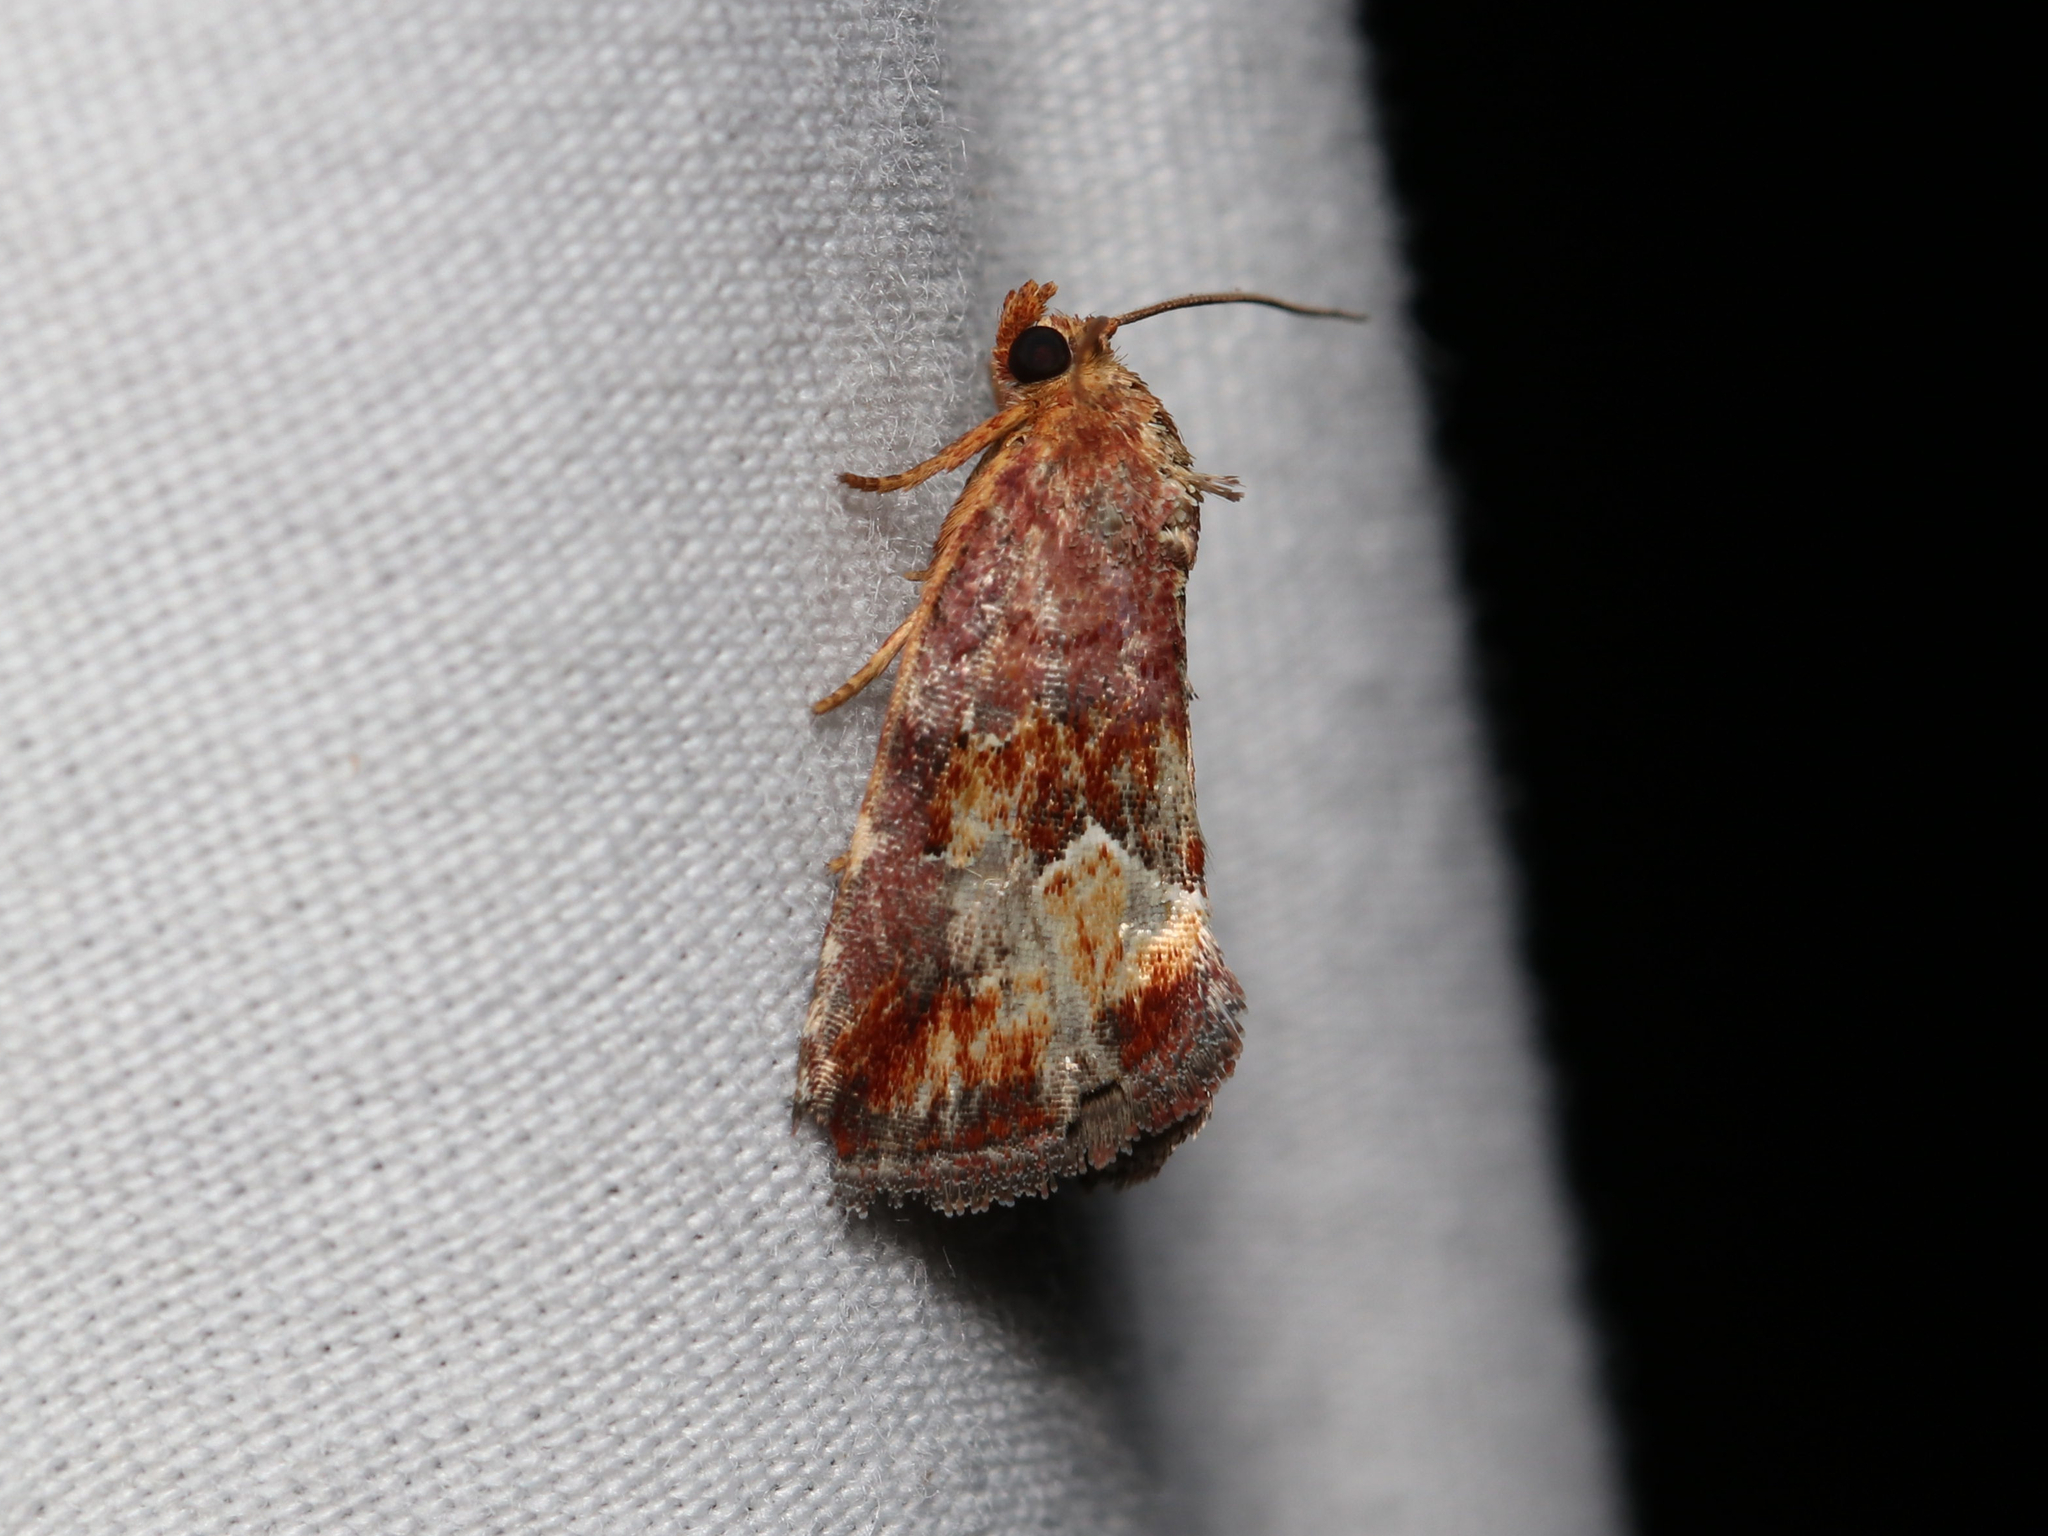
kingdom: Animalia
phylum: Arthropoda
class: Insecta
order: Lepidoptera
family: Noctuidae
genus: Deltote
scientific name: Deltote bellicula
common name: Bog glyph
